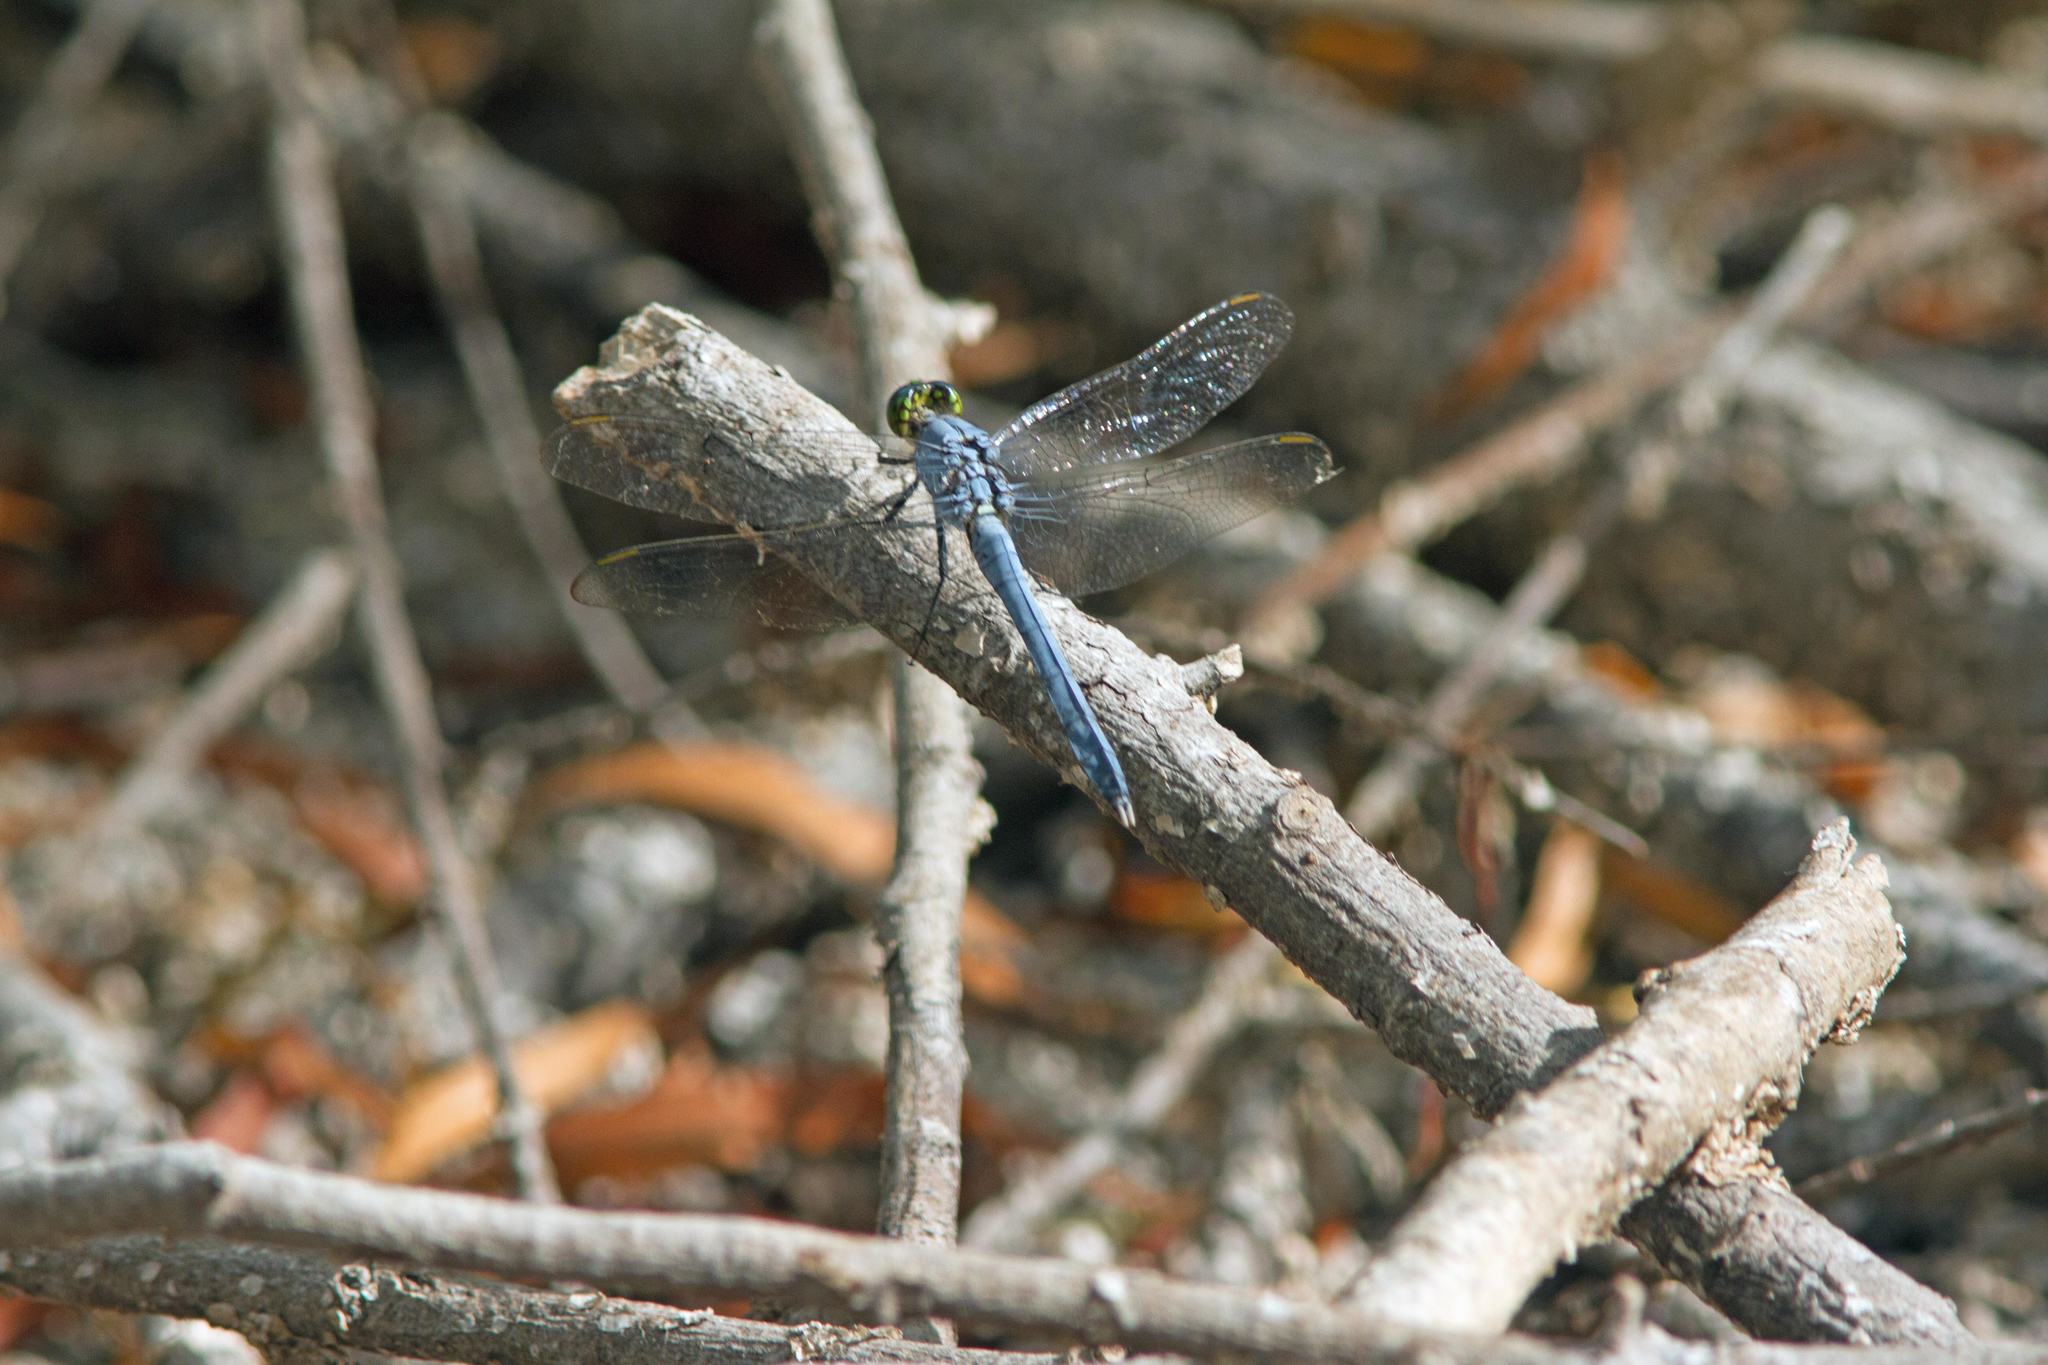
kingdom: Animalia
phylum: Arthropoda
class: Insecta
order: Odonata
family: Libellulidae
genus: Erythemis
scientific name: Erythemis simplicicollis
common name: Eastern pondhawk
